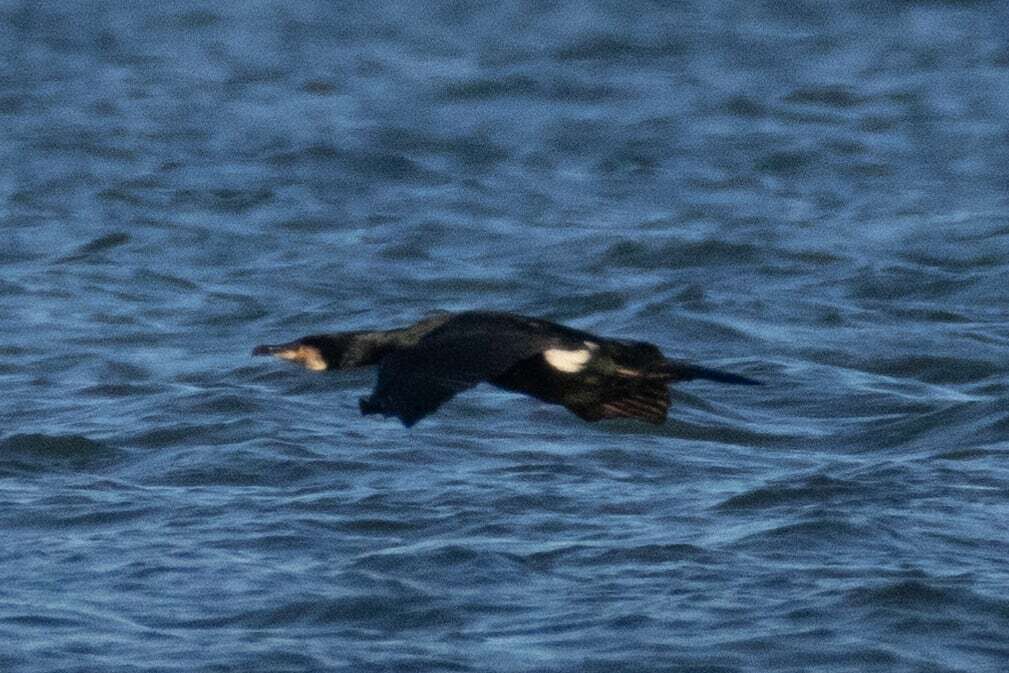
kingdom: Animalia
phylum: Chordata
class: Aves
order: Suliformes
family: Phalacrocoracidae
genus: Phalacrocorax
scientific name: Phalacrocorax carbo
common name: Great cormorant
